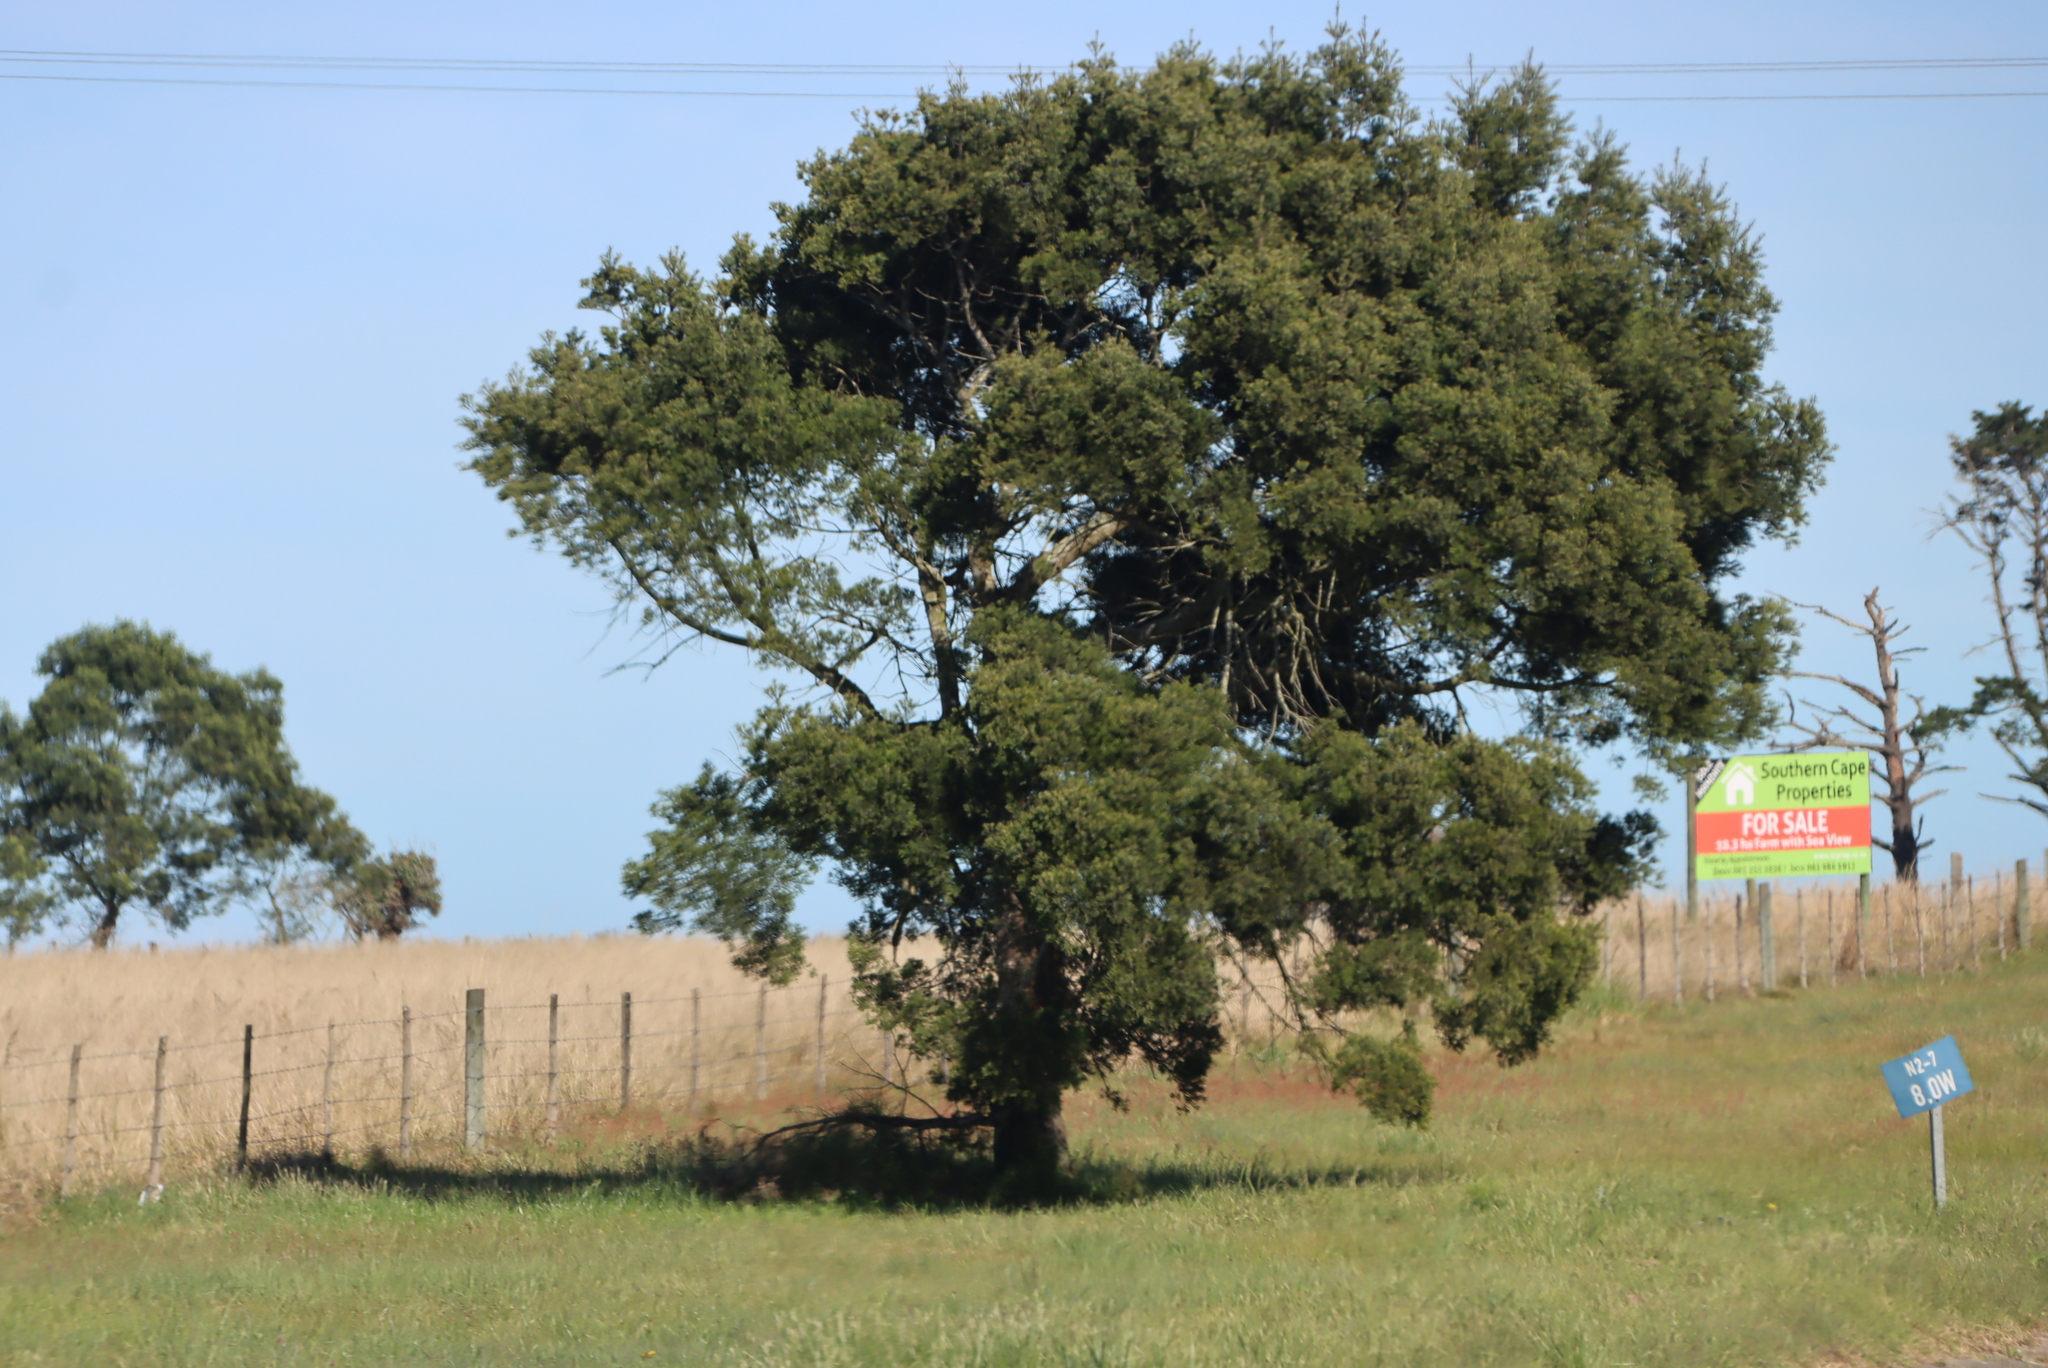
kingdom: Plantae
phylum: Tracheophyta
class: Pinopsida
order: Pinales
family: Podocarpaceae
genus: Afrocarpus
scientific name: Afrocarpus falcatus
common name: Bastard yellowwood
